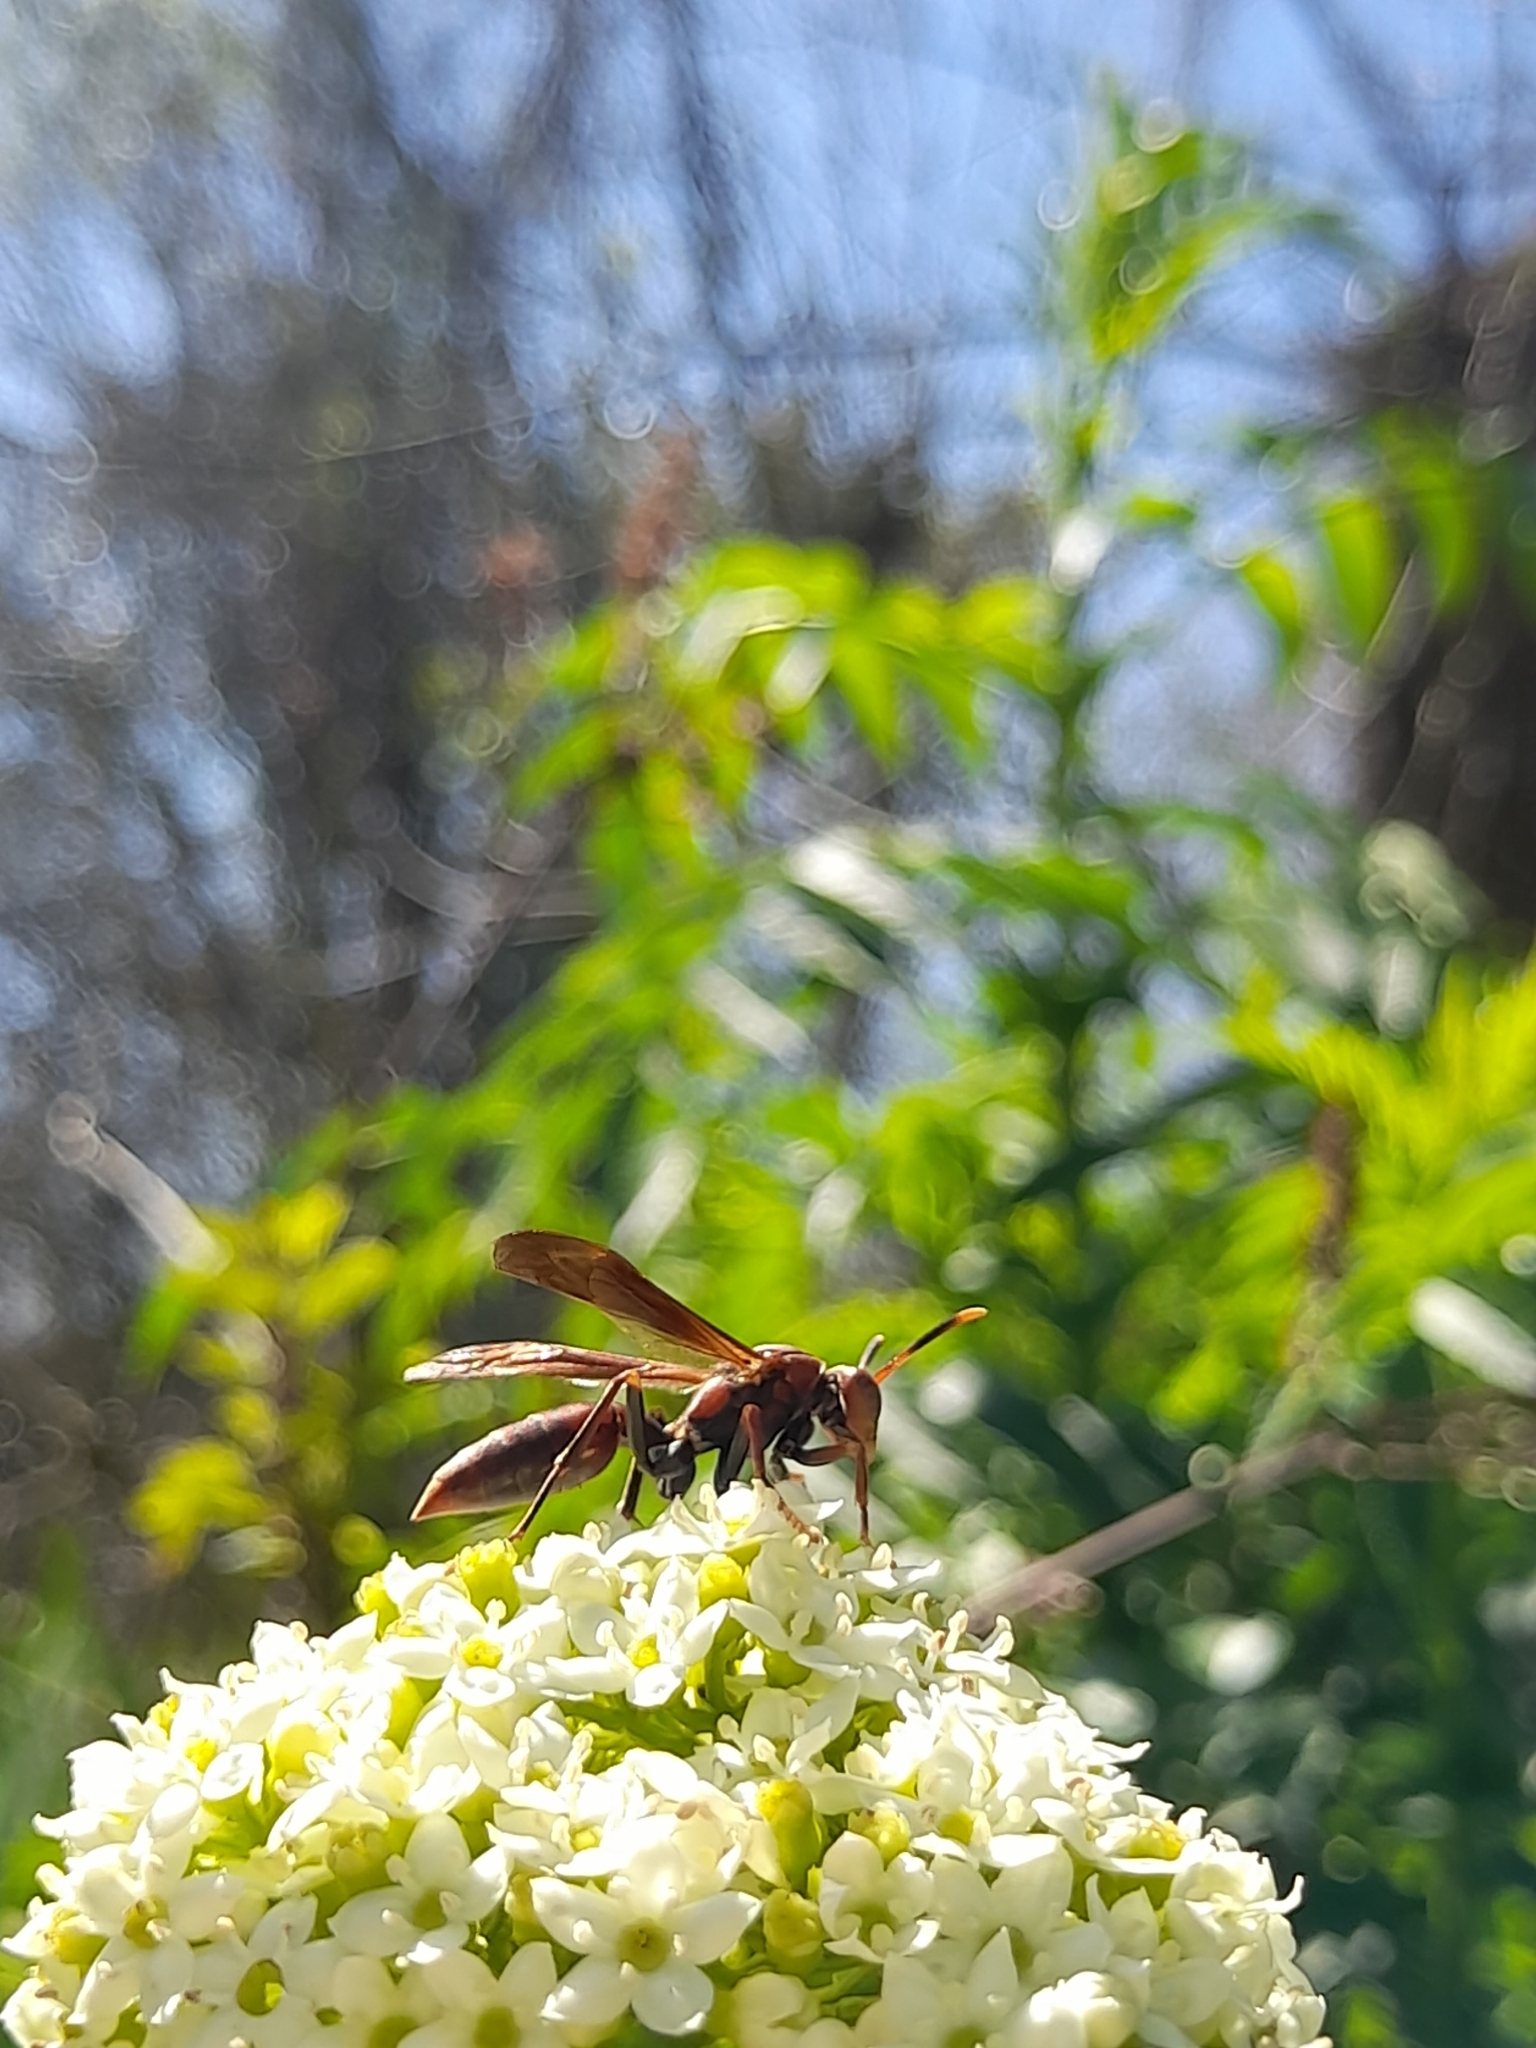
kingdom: Animalia
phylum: Arthropoda
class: Insecta
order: Hymenoptera
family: Pompilidae
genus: Aphanilopterus
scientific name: Aphanilopterus
